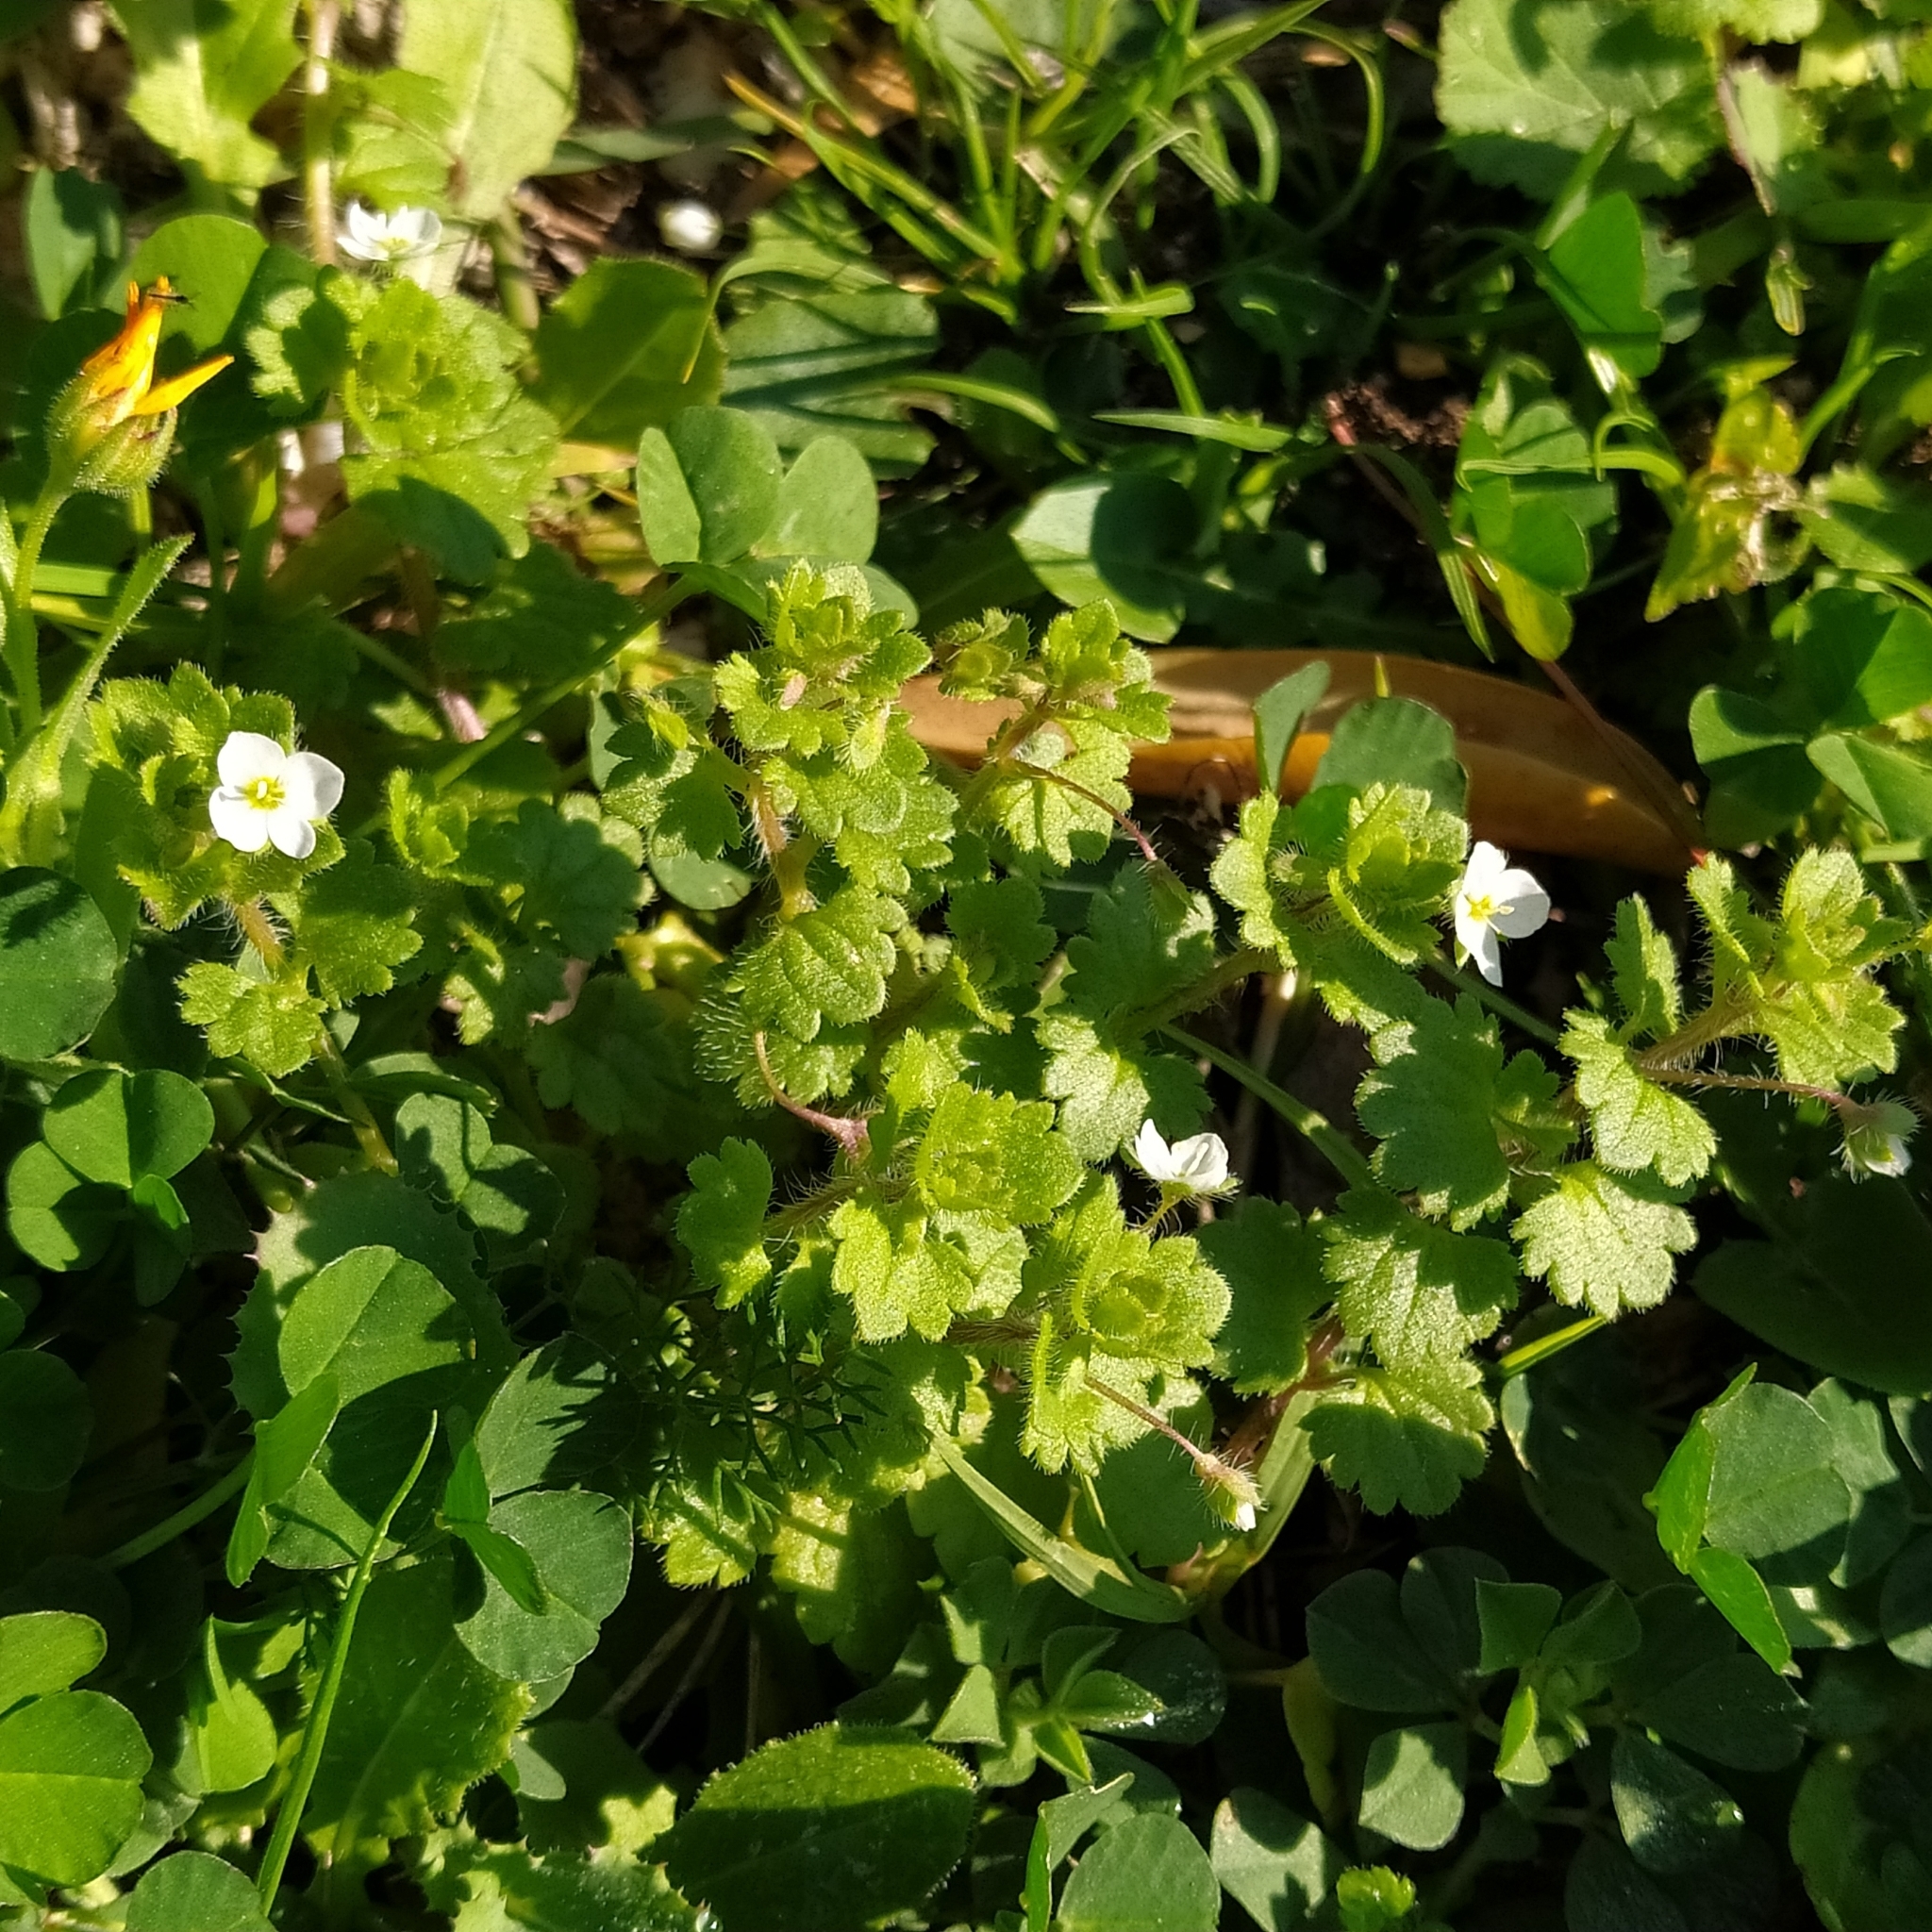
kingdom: Plantae
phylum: Tracheophyta
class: Magnoliopsida
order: Lamiales
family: Plantaginaceae
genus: Veronica
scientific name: Veronica cymbalaria
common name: Pale speedwell
